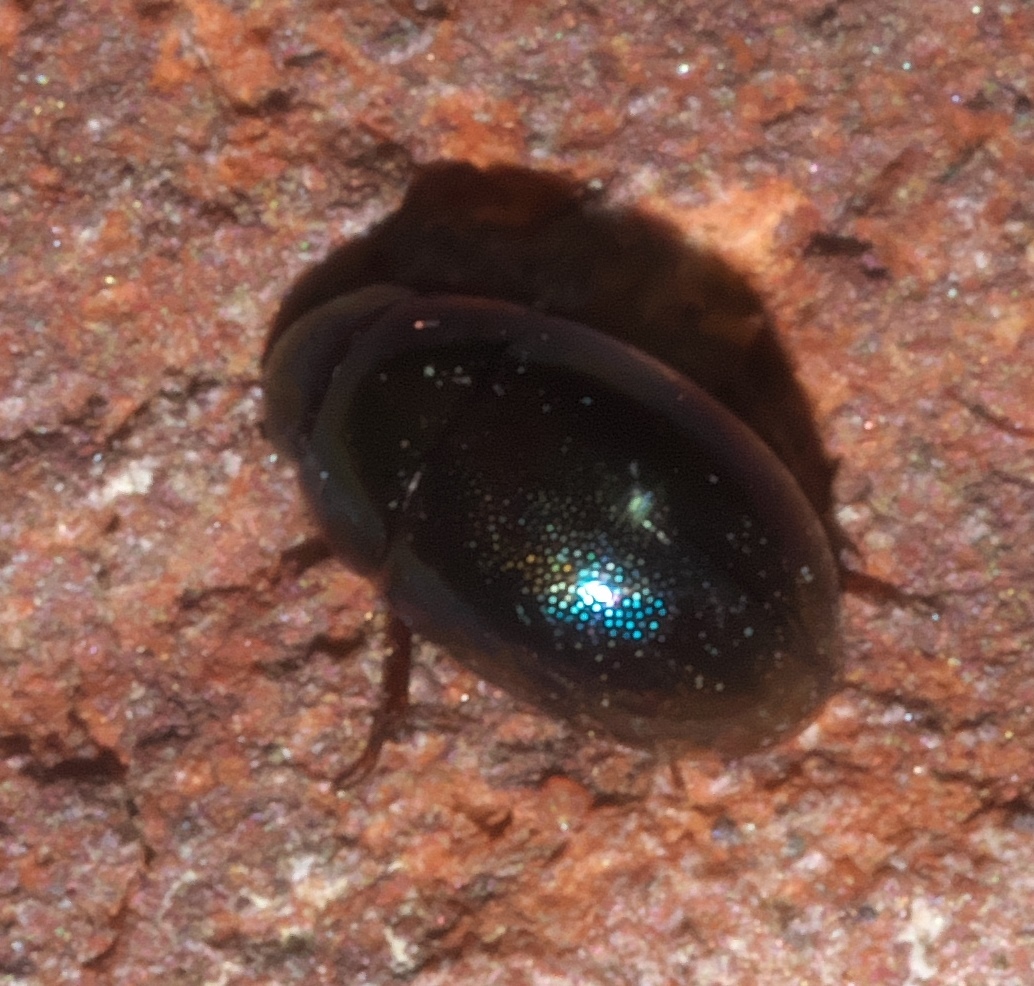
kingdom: Animalia
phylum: Arthropoda
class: Insecta
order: Coleoptera
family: Hydrophilidae
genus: Paracymus
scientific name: Paracymus
